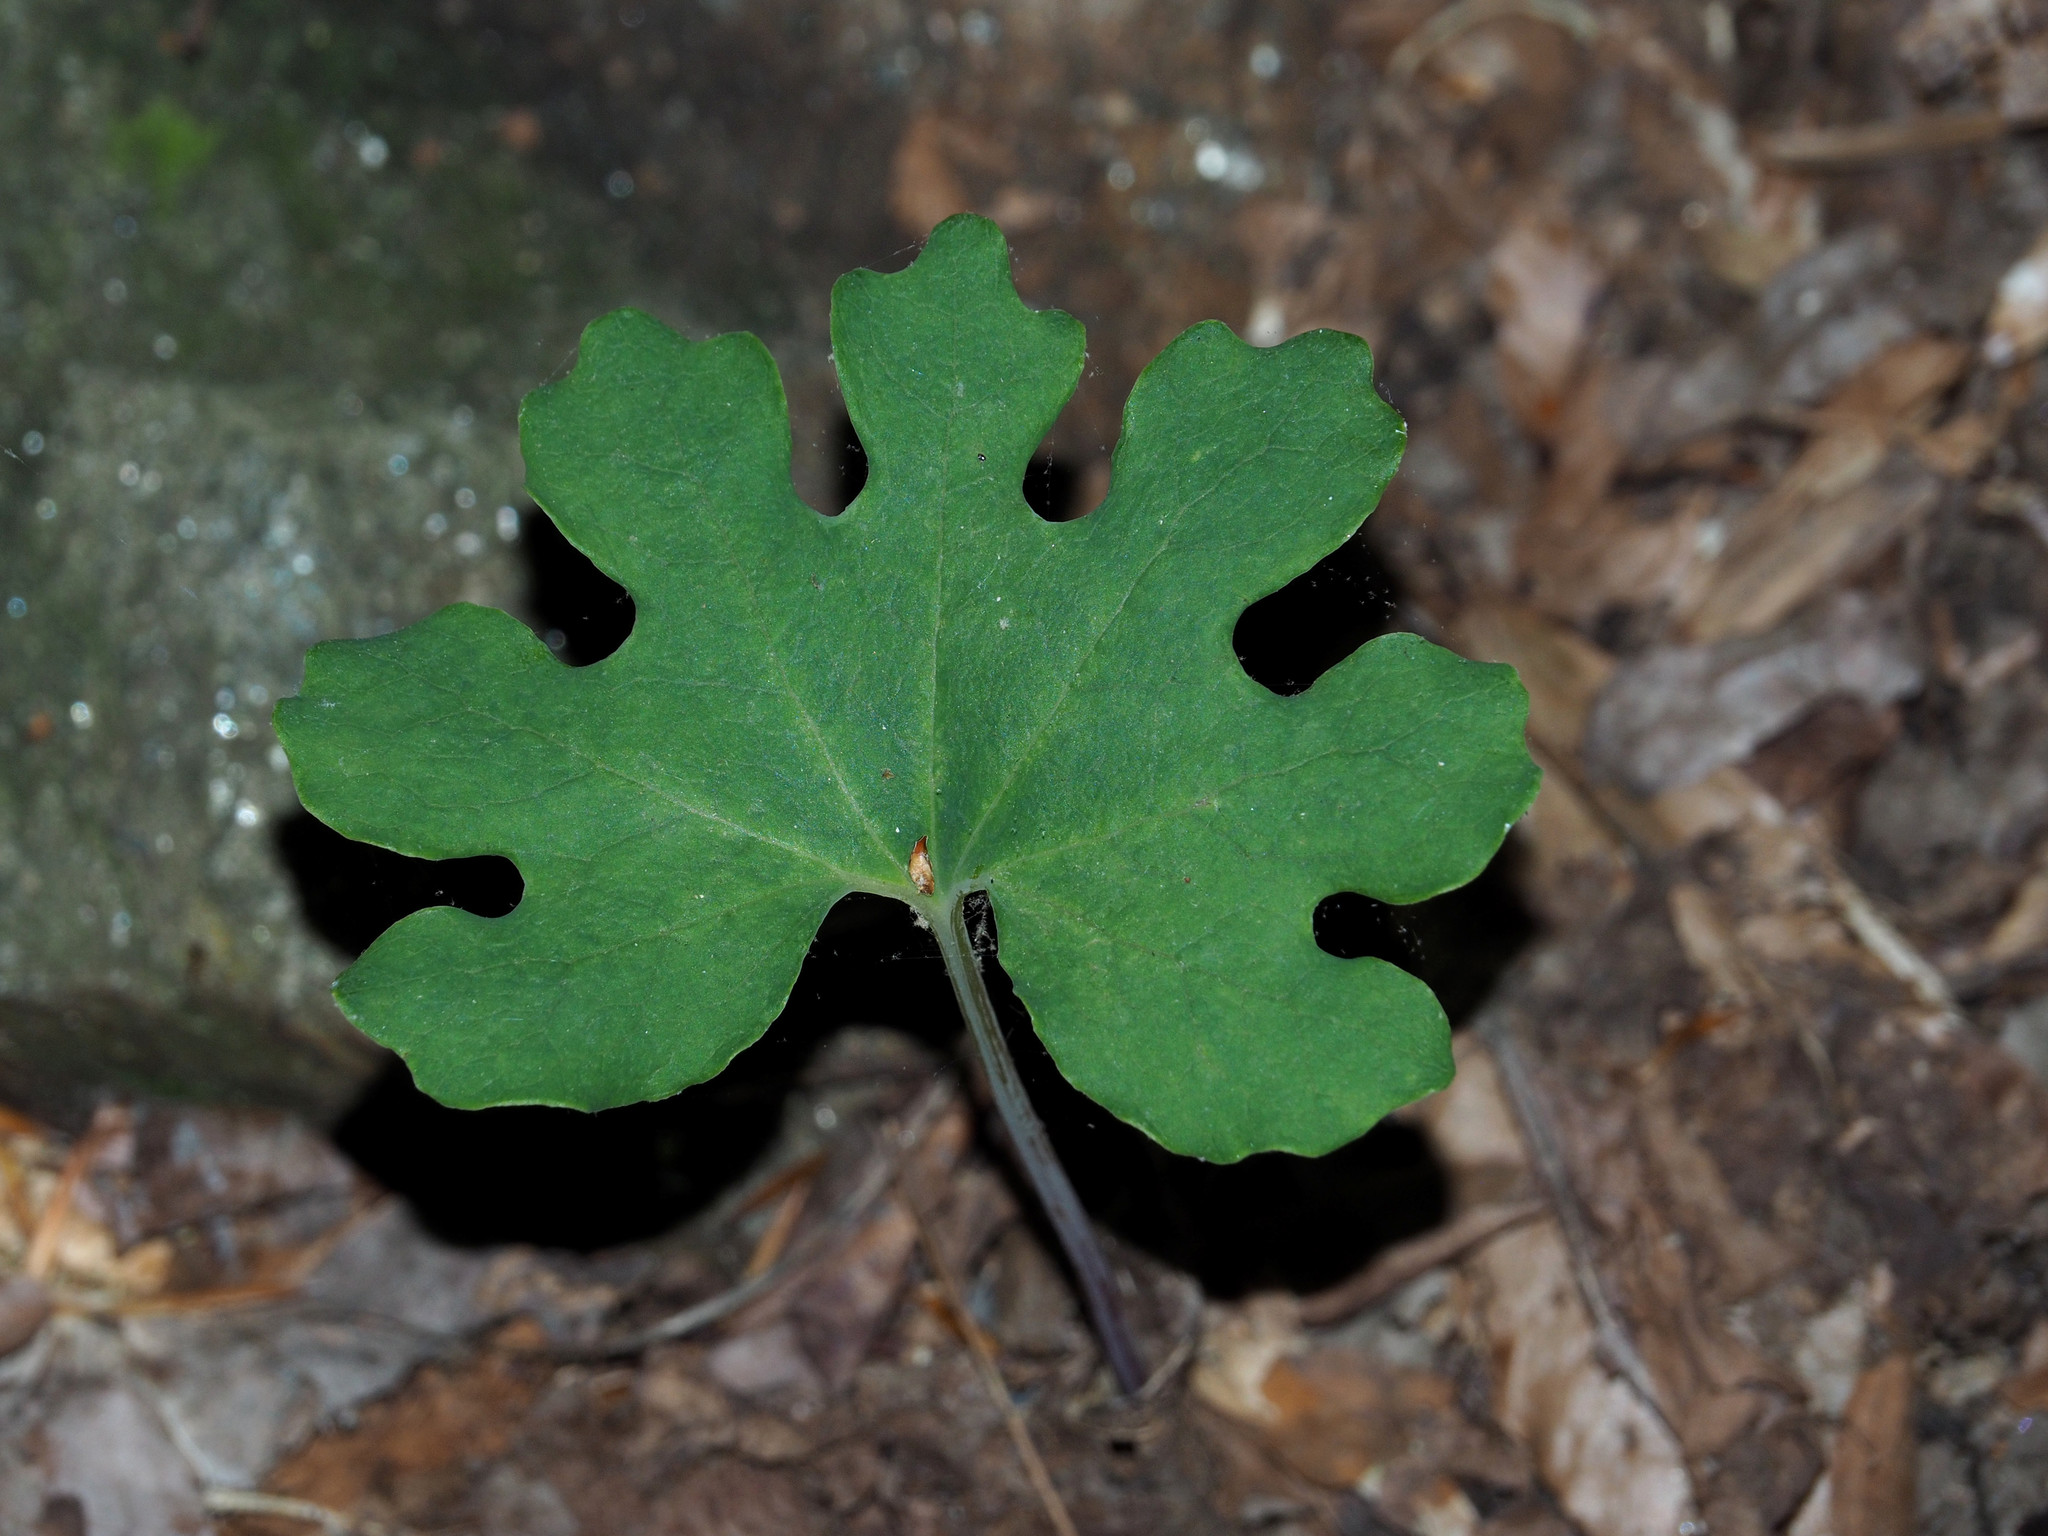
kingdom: Plantae
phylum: Tracheophyta
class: Magnoliopsida
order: Ranunculales
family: Papaveraceae
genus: Sanguinaria
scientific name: Sanguinaria canadensis
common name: Bloodroot
